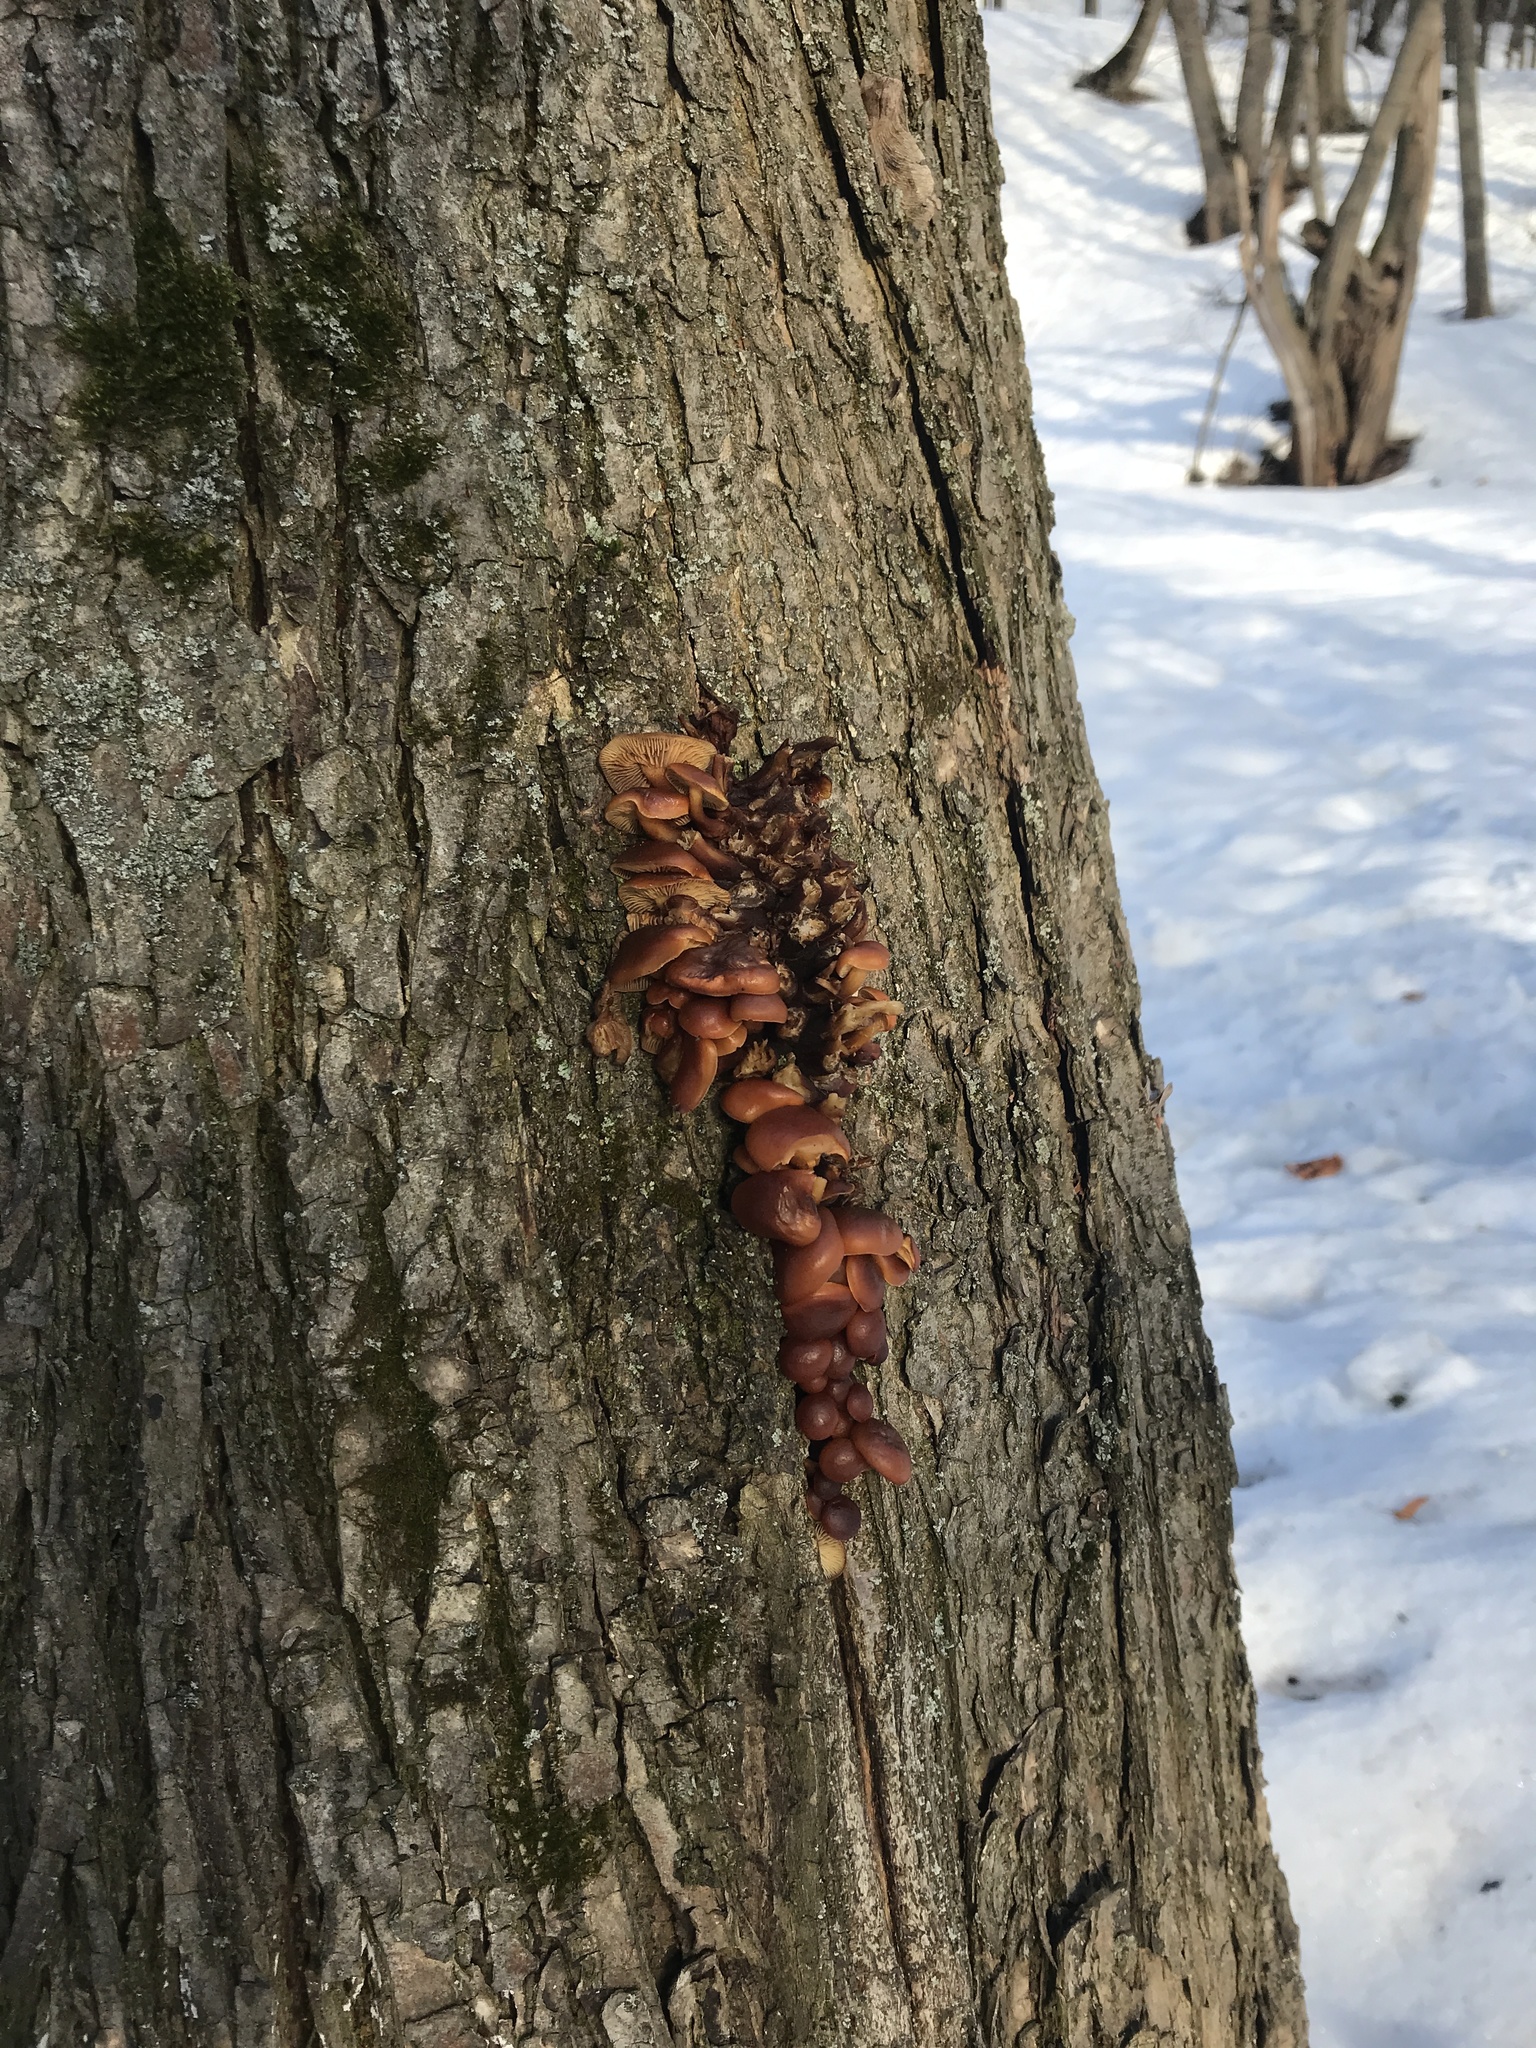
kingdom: Fungi
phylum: Basidiomycota
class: Agaricomycetes
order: Agaricales
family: Physalacriaceae
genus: Flammulina
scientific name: Flammulina
